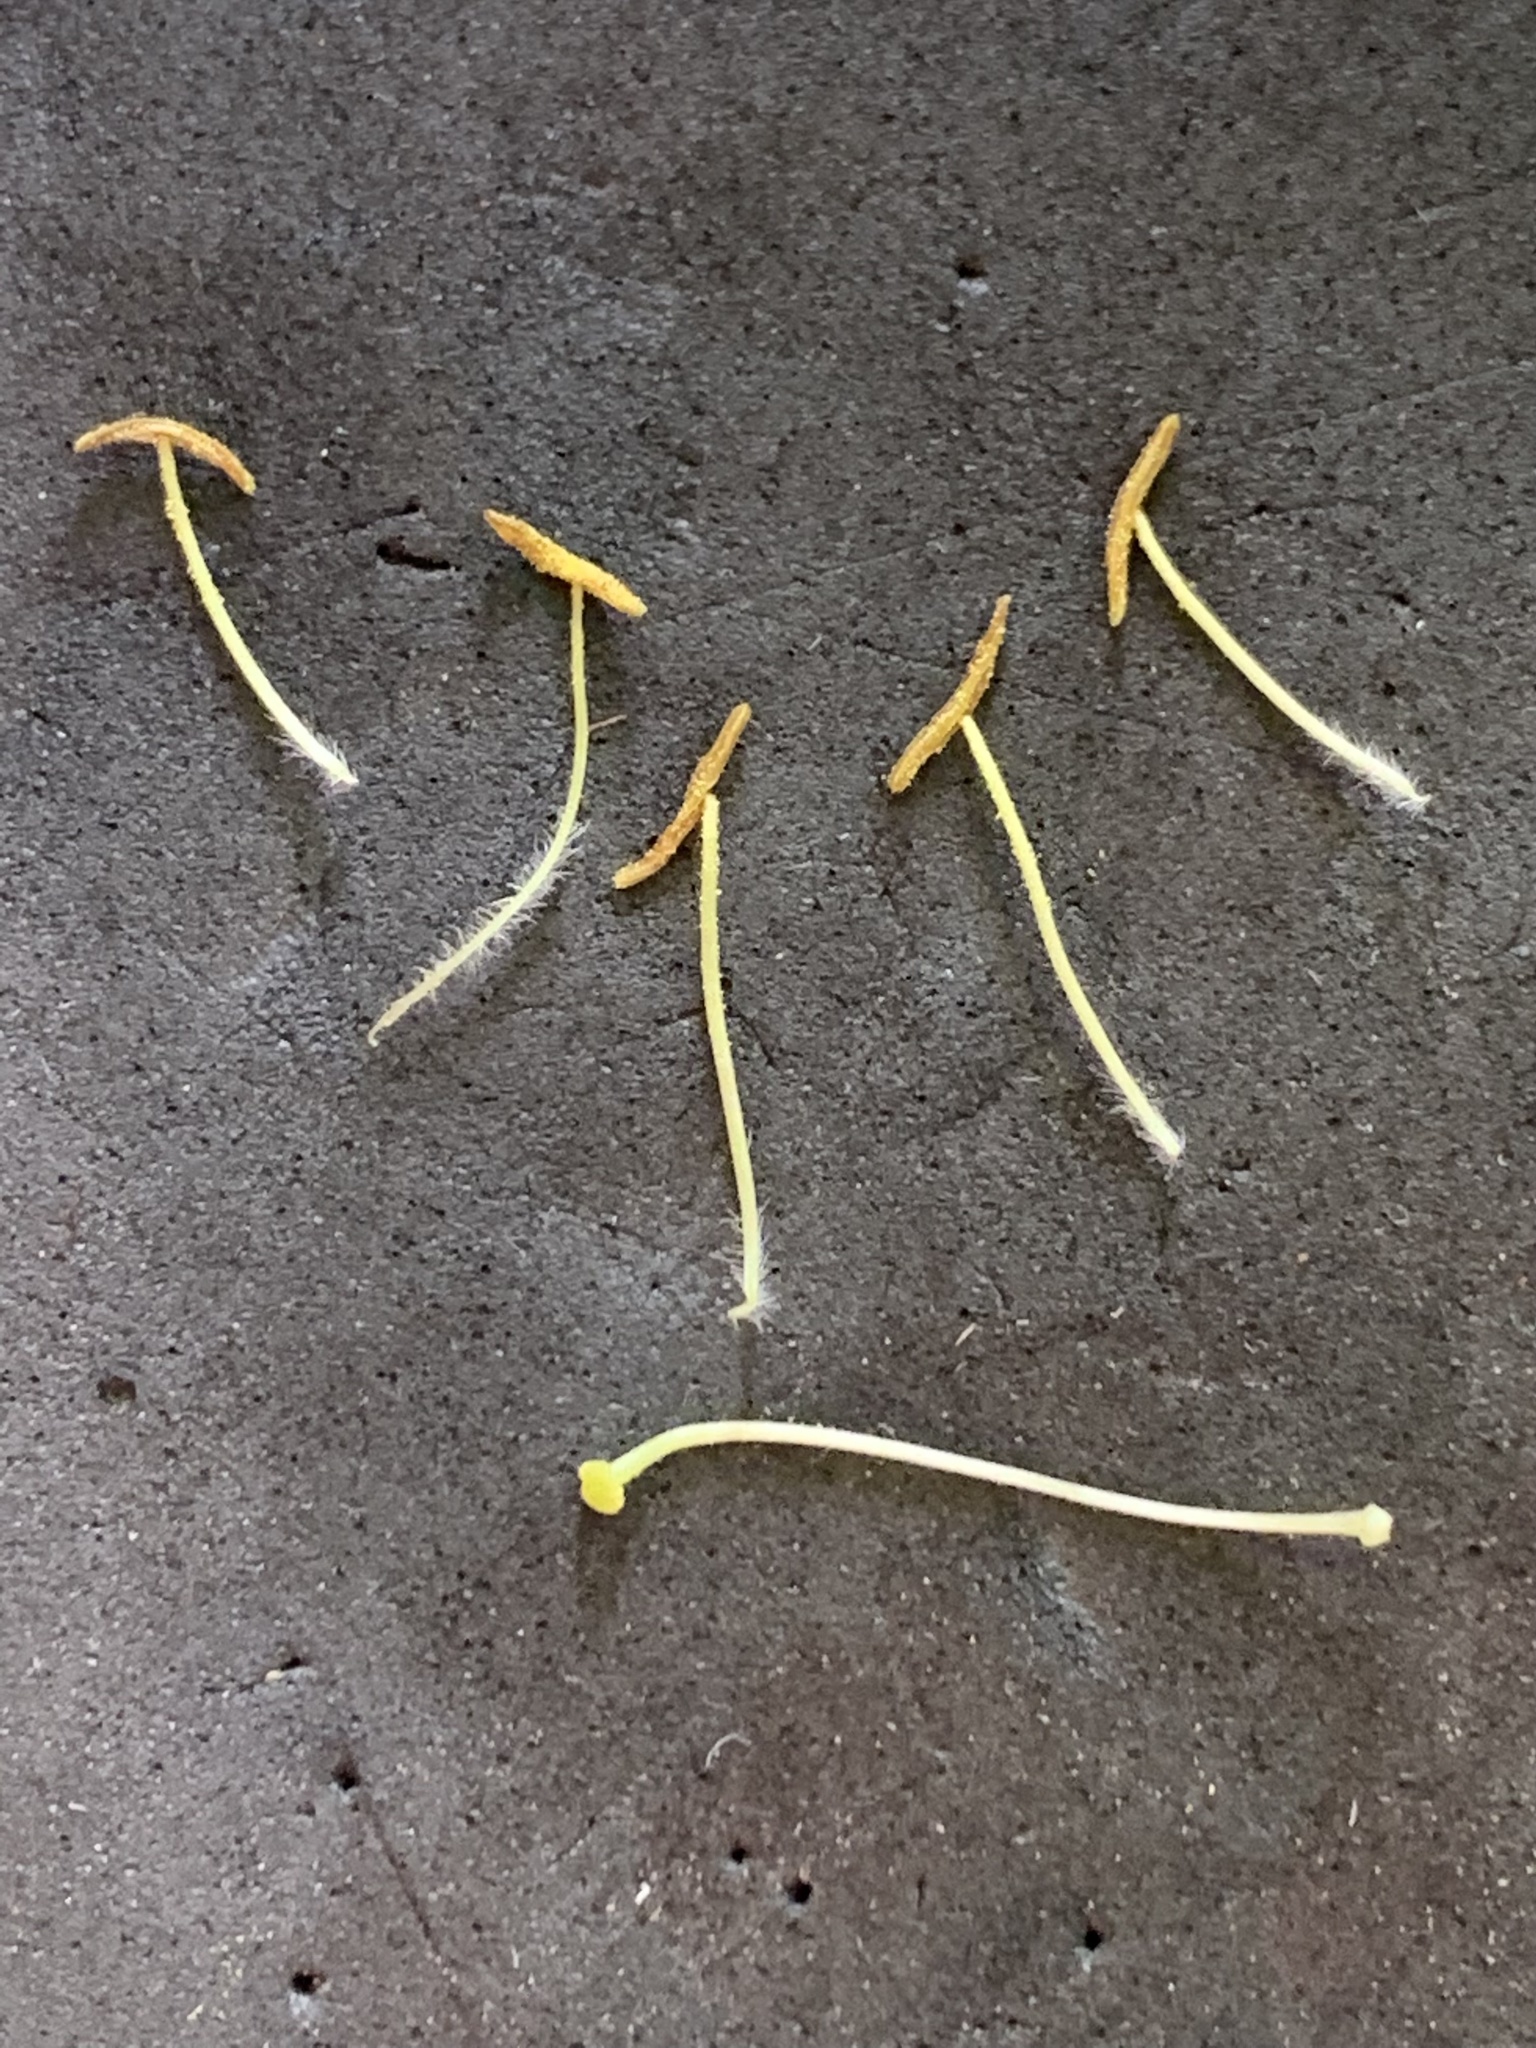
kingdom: Plantae
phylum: Tracheophyta
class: Magnoliopsida
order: Dipsacales
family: Caprifoliaceae
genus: Lonicera
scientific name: Lonicera hispidula
